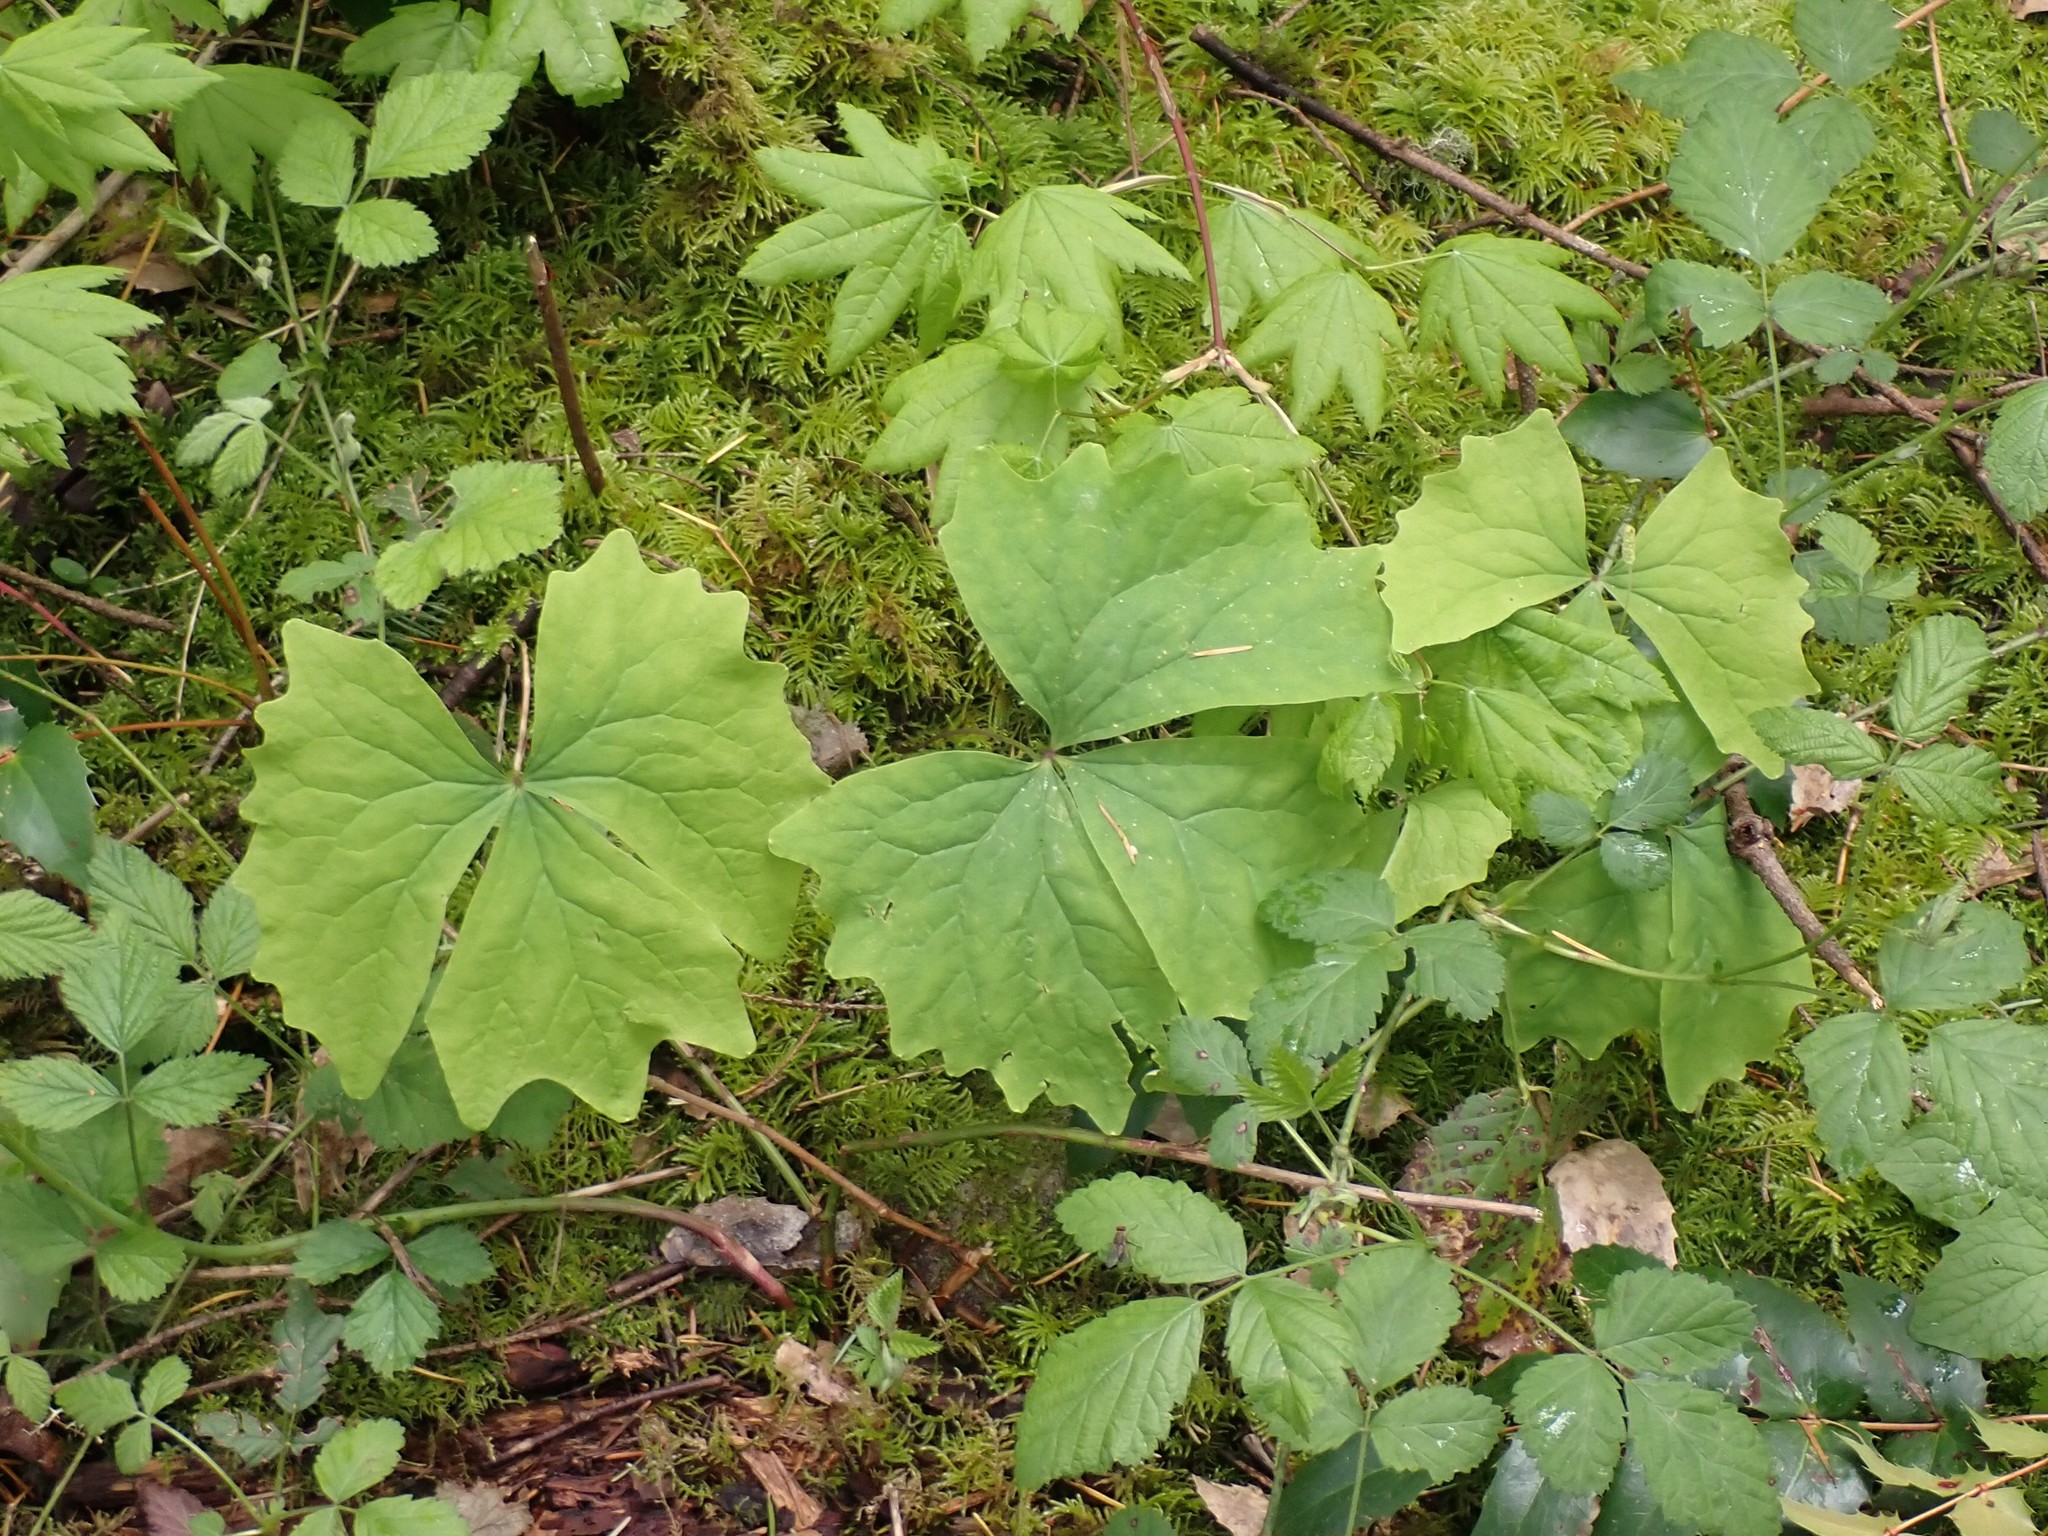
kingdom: Plantae
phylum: Tracheophyta
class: Magnoliopsida
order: Ranunculales
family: Berberidaceae
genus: Achlys
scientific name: Achlys triphylla
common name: Vanilla-leaf
